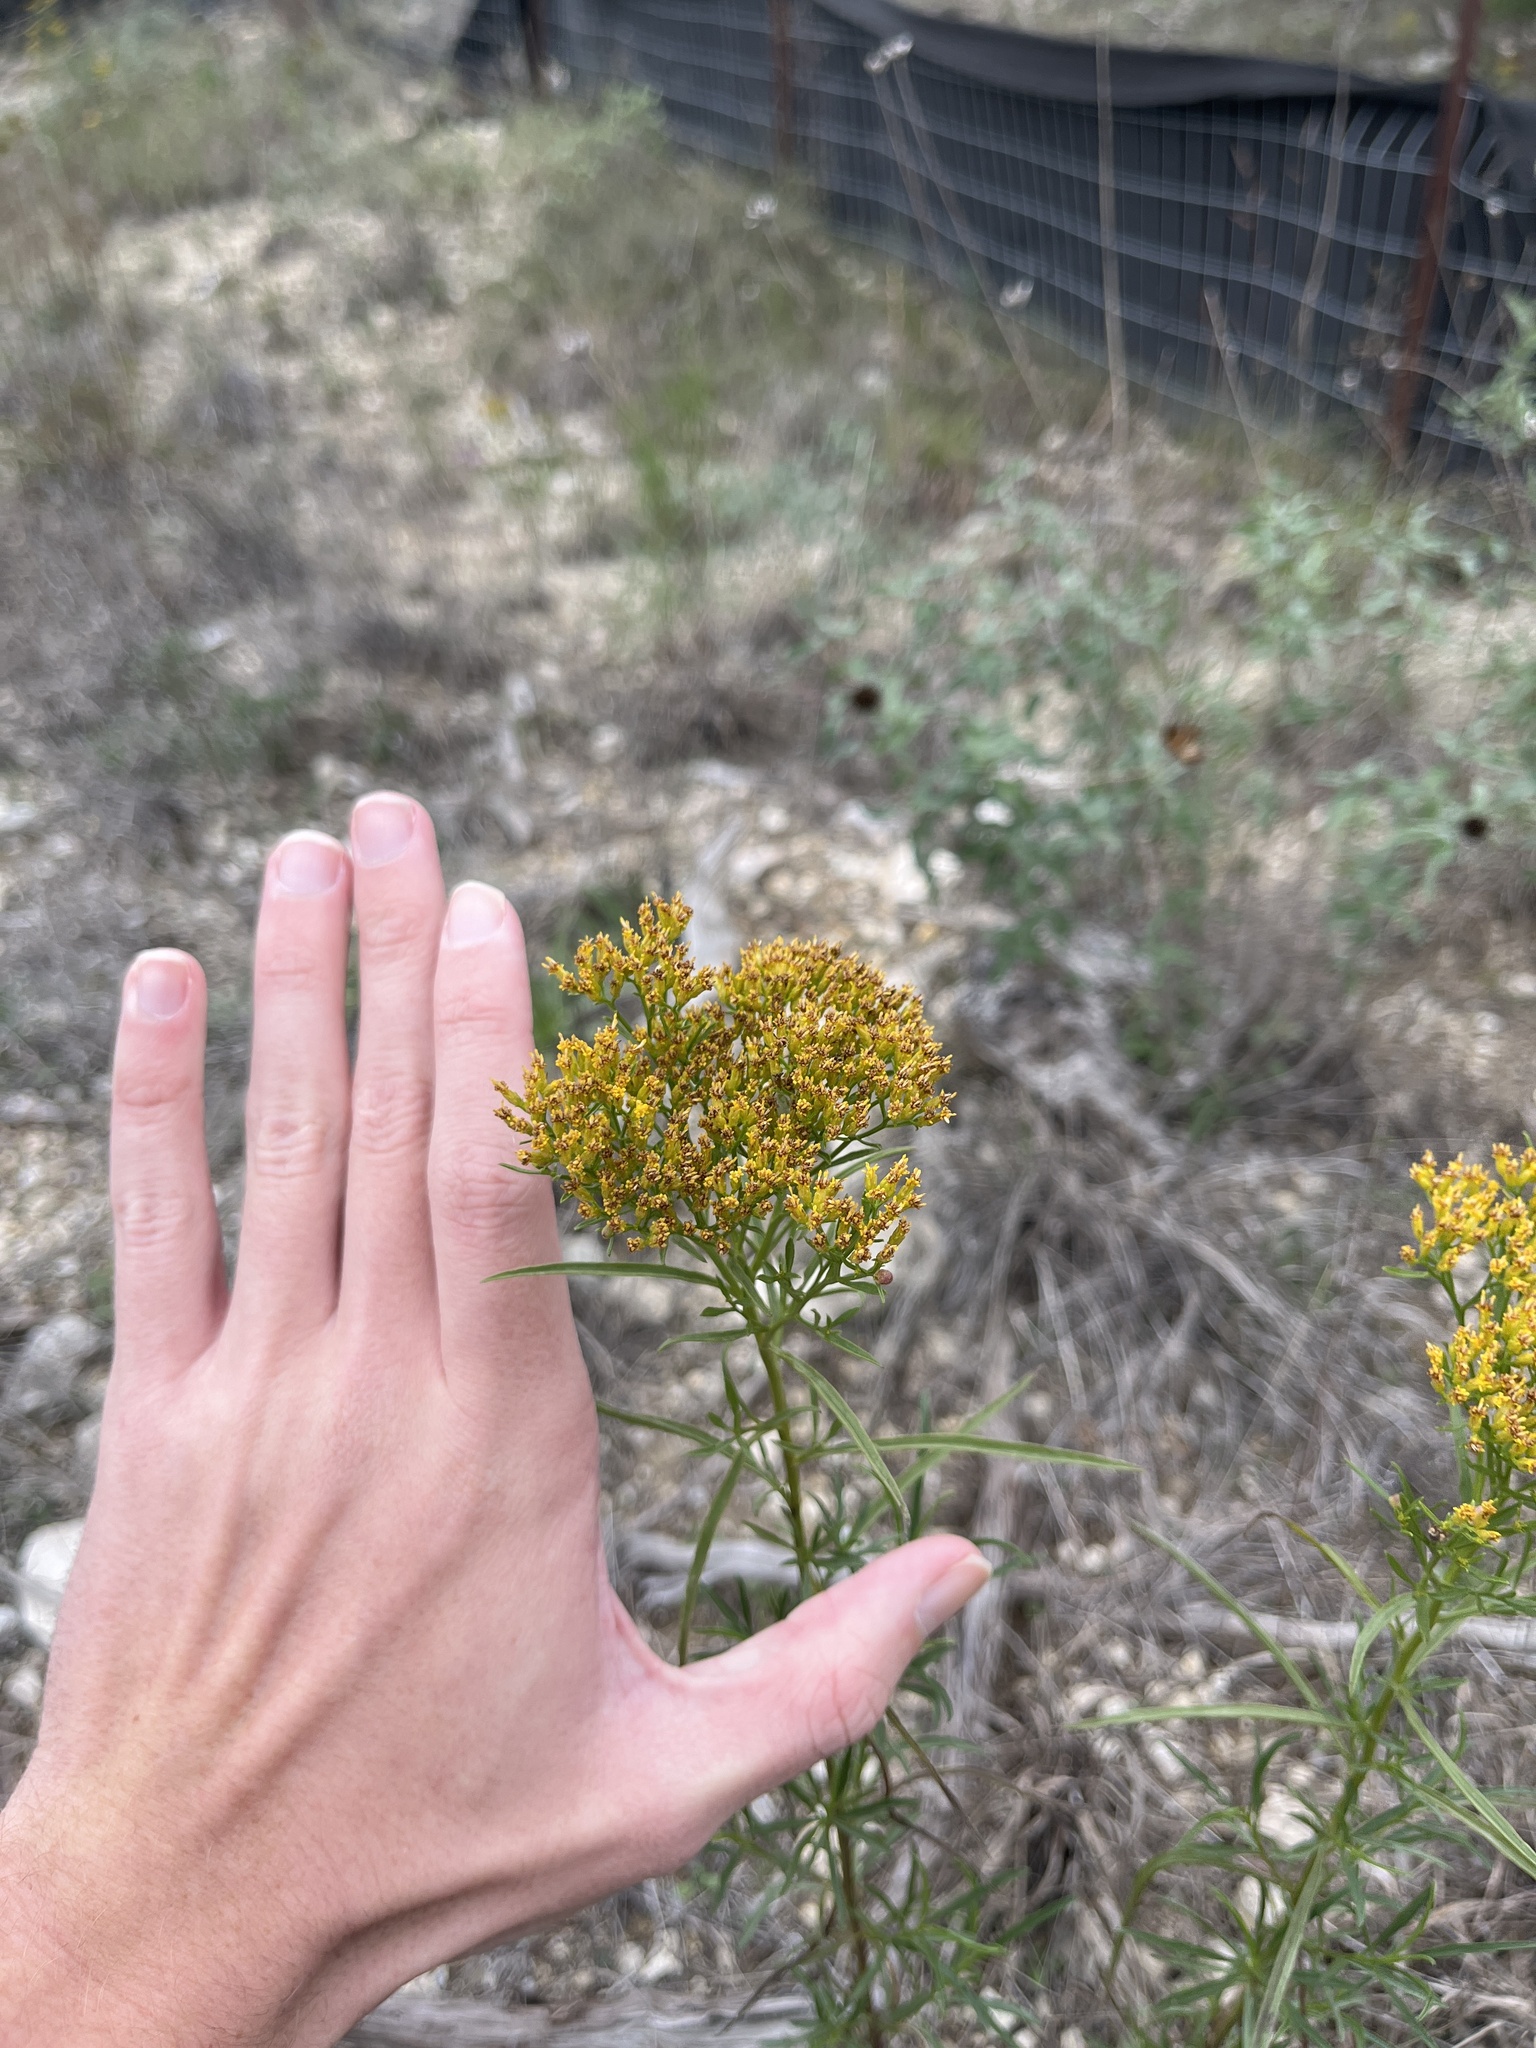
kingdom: Plantae
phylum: Tracheophyta
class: Magnoliopsida
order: Asterales
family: Asteraceae
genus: Gymnosperma
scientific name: Gymnosperma glutinosum
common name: Gumhead
